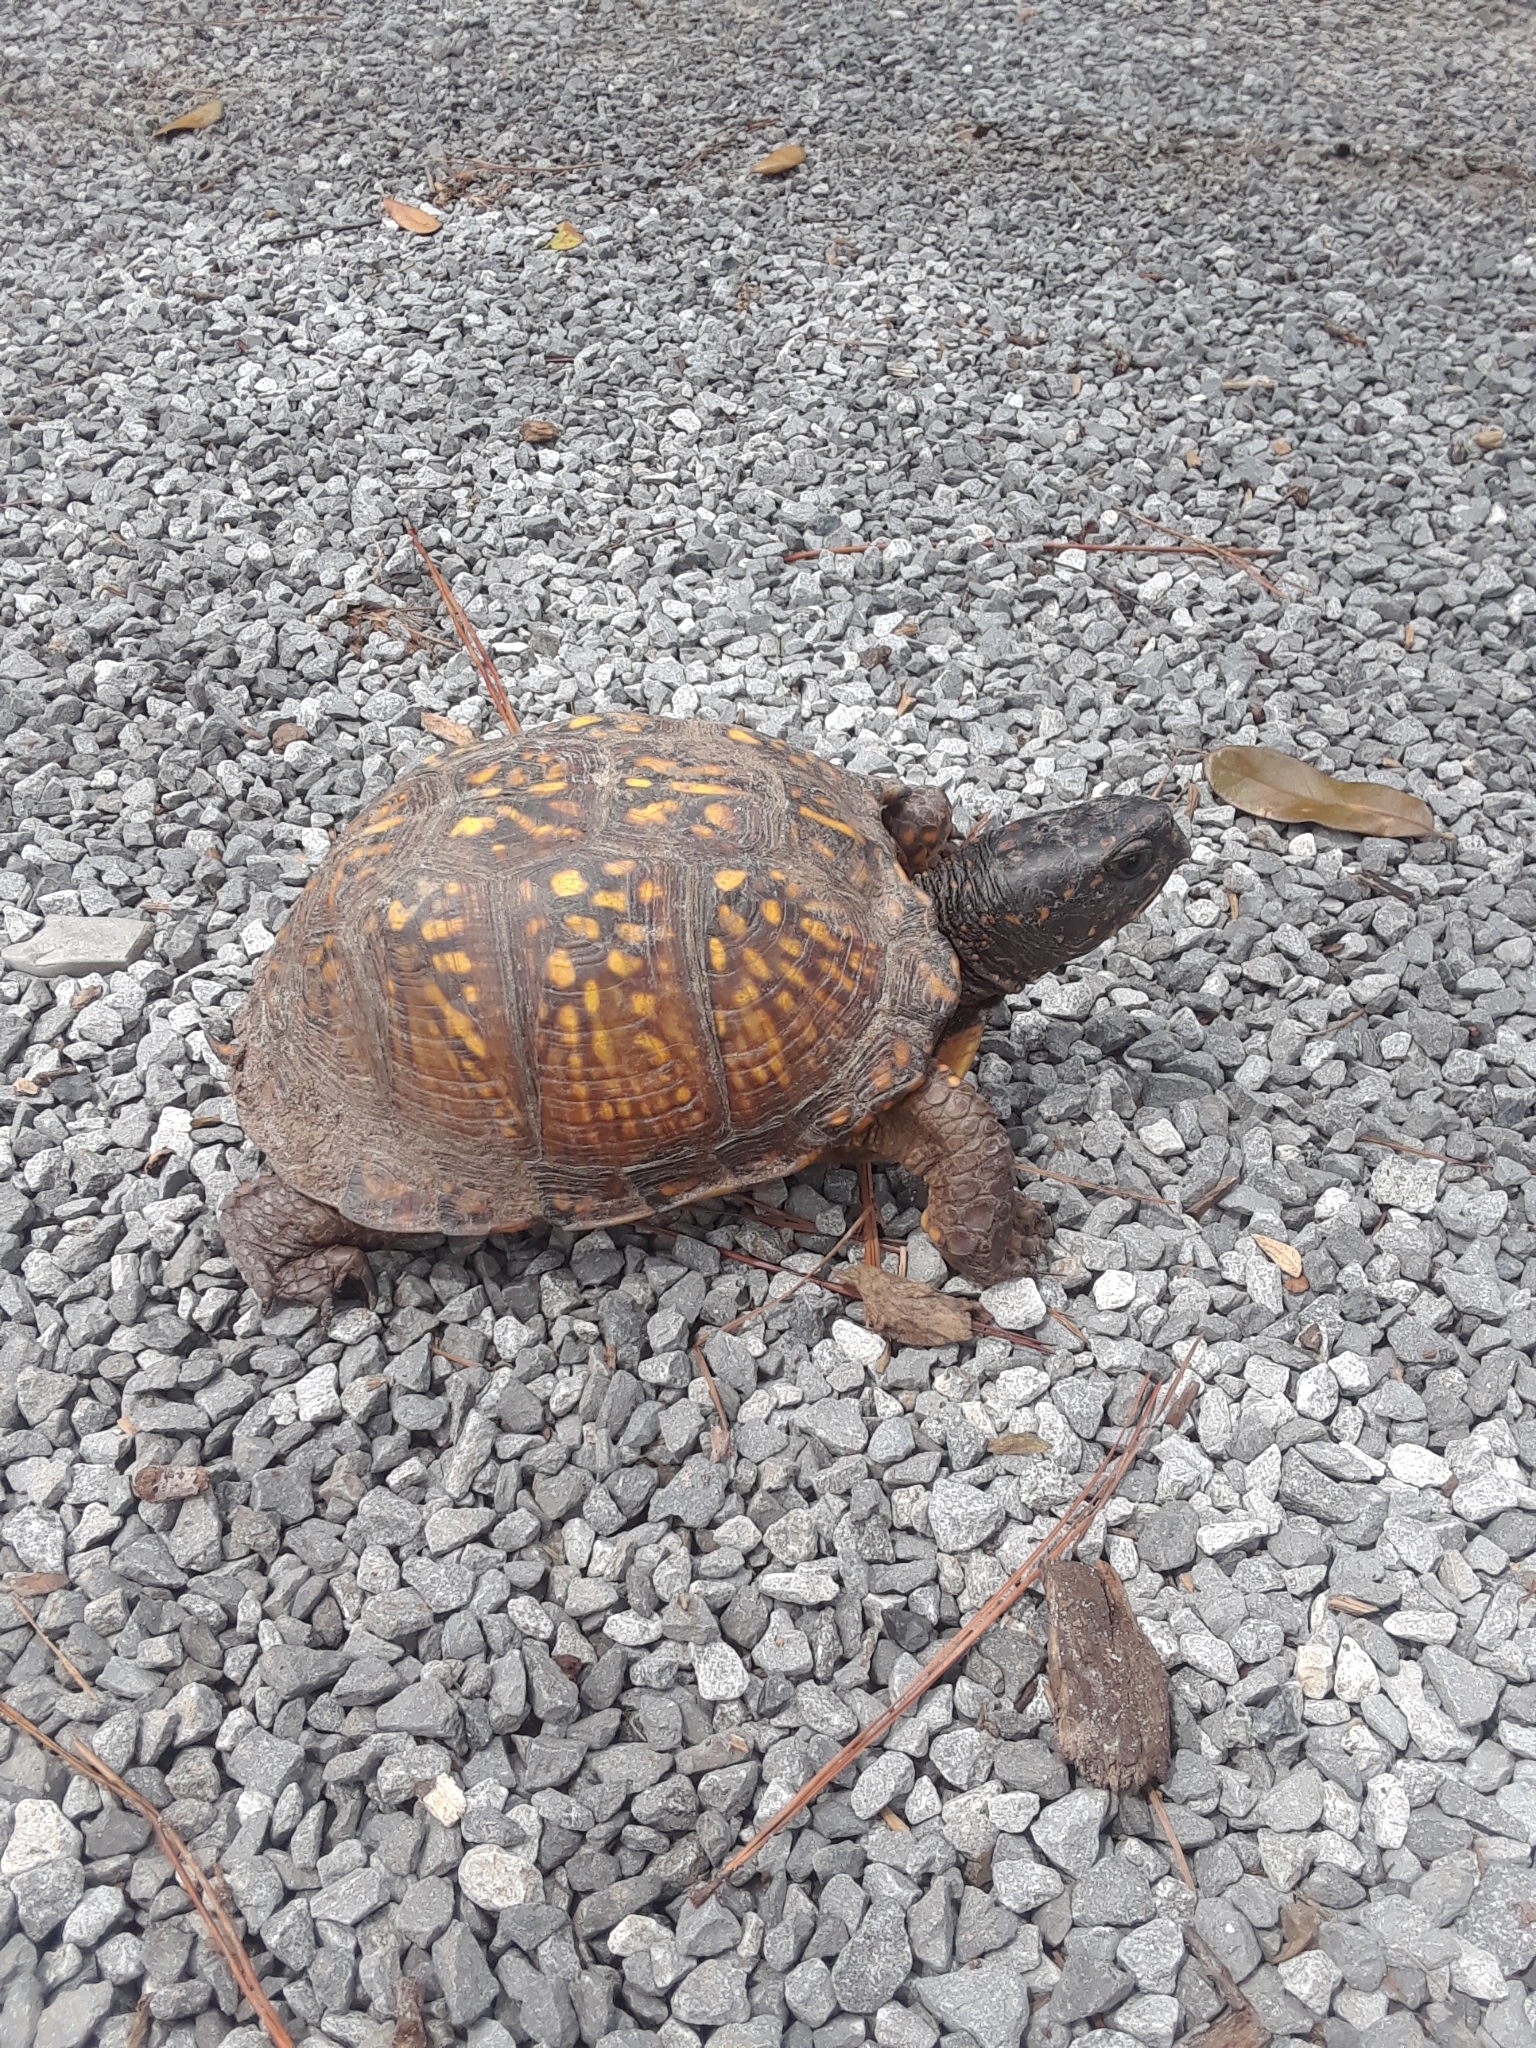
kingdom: Animalia
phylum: Chordata
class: Testudines
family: Emydidae
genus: Terrapene
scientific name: Terrapene carolina
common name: Common box turtle
